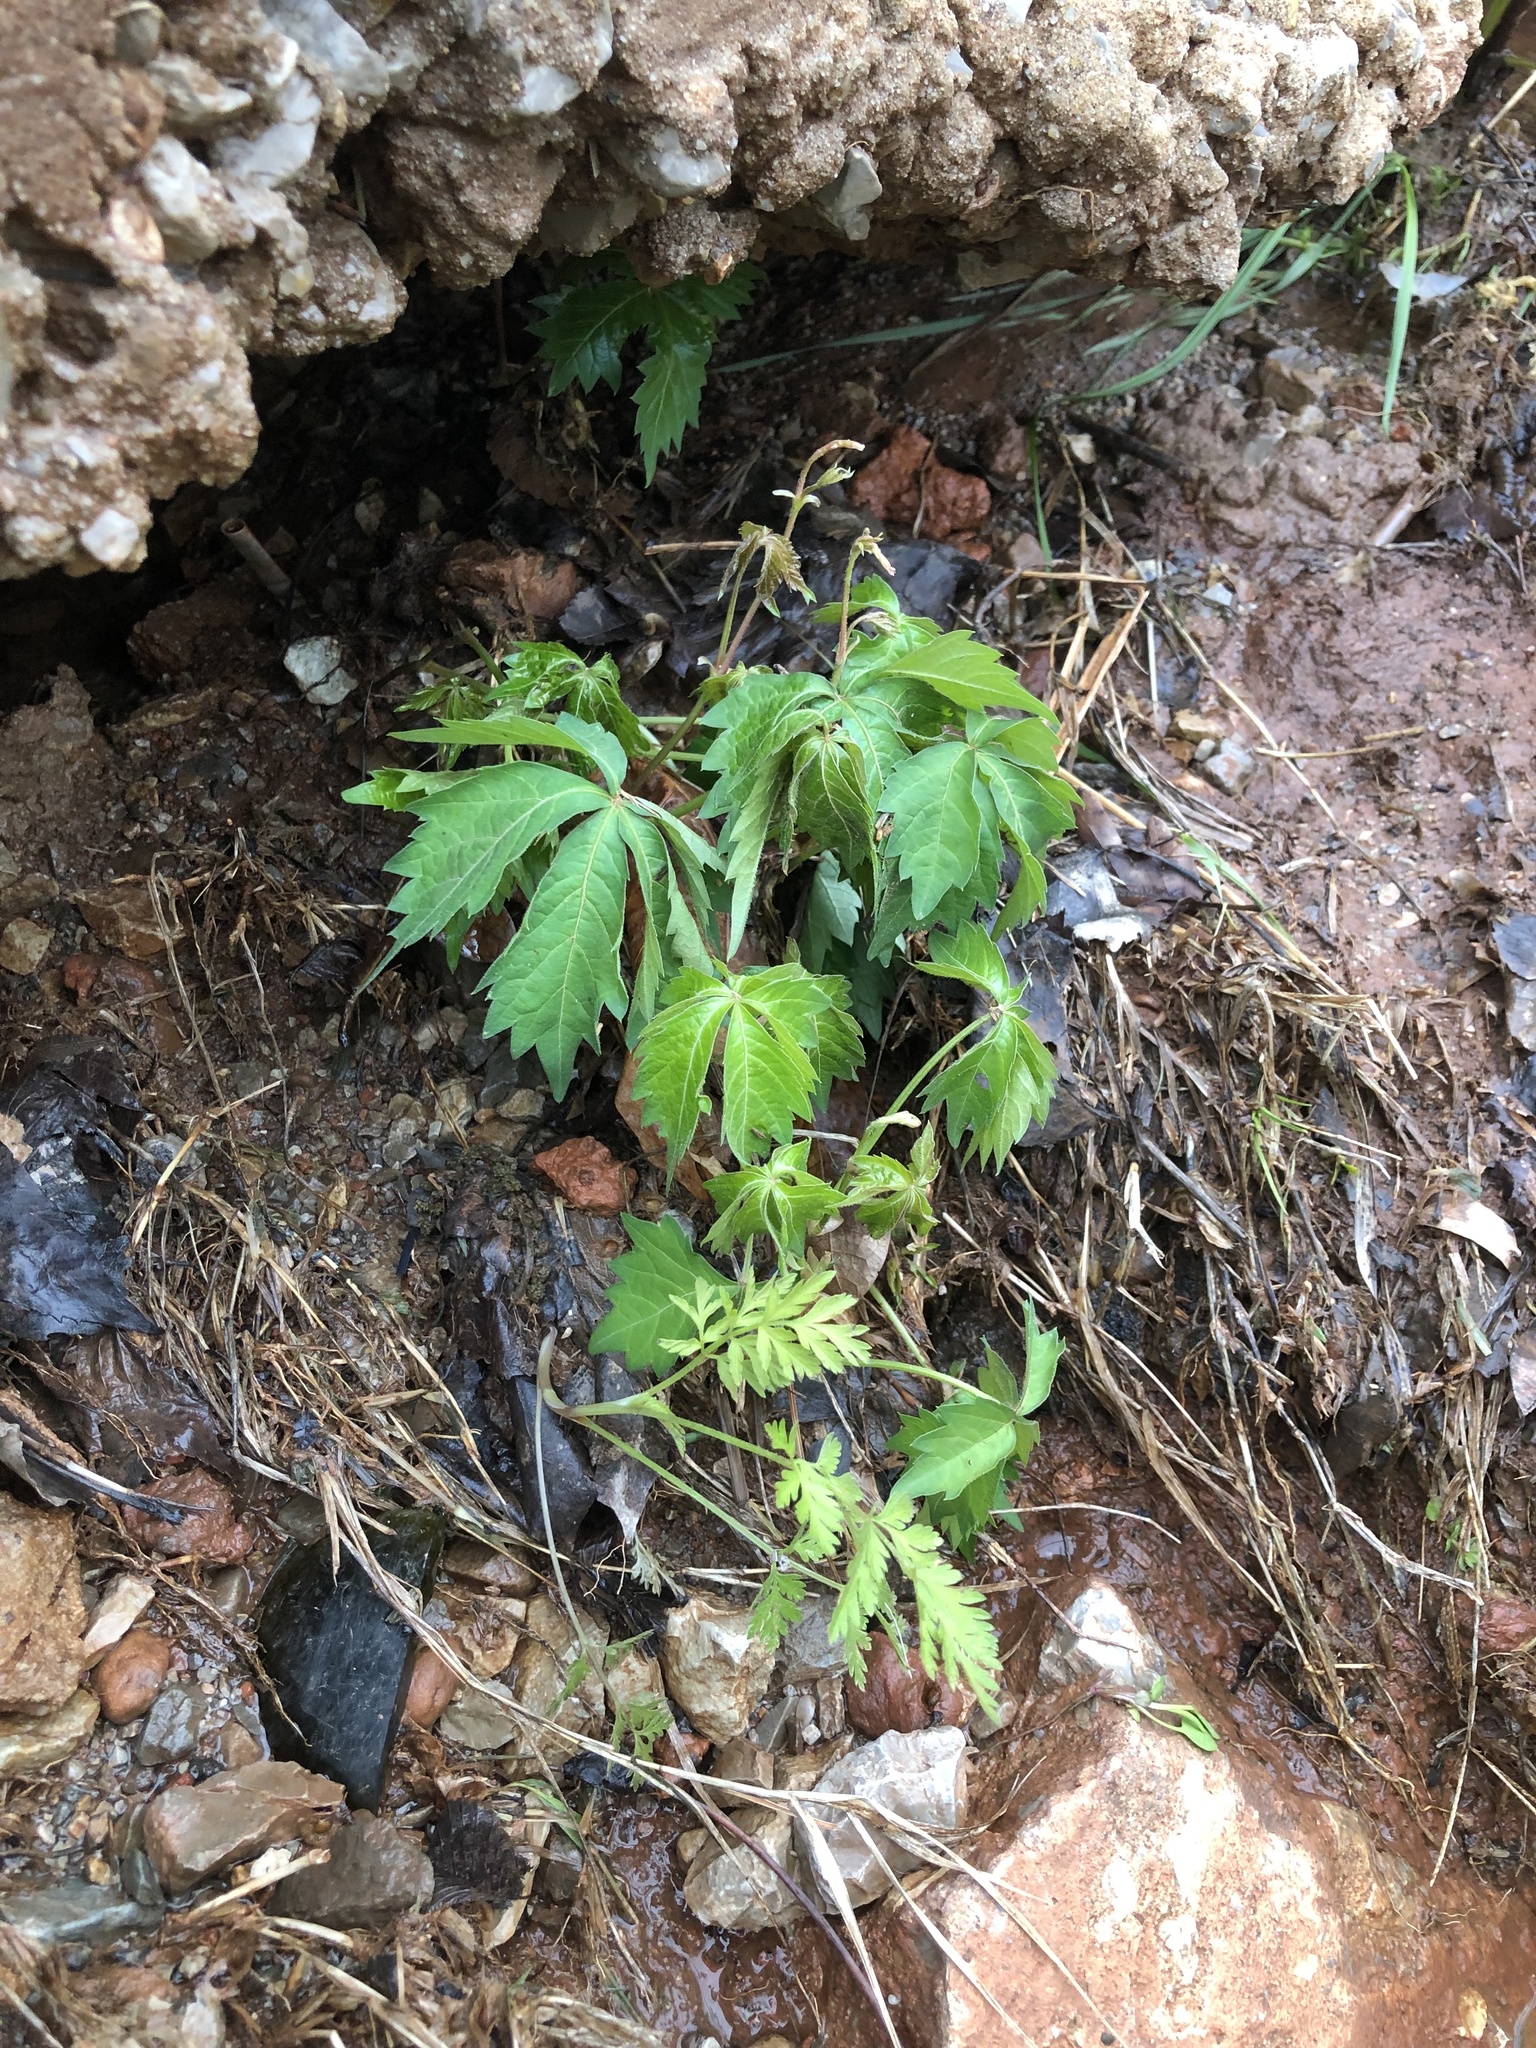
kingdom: Plantae
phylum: Tracheophyta
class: Magnoliopsida
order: Vitales
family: Vitaceae
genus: Parthenocissus
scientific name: Parthenocissus quinquefolia
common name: Virginia-creeper
